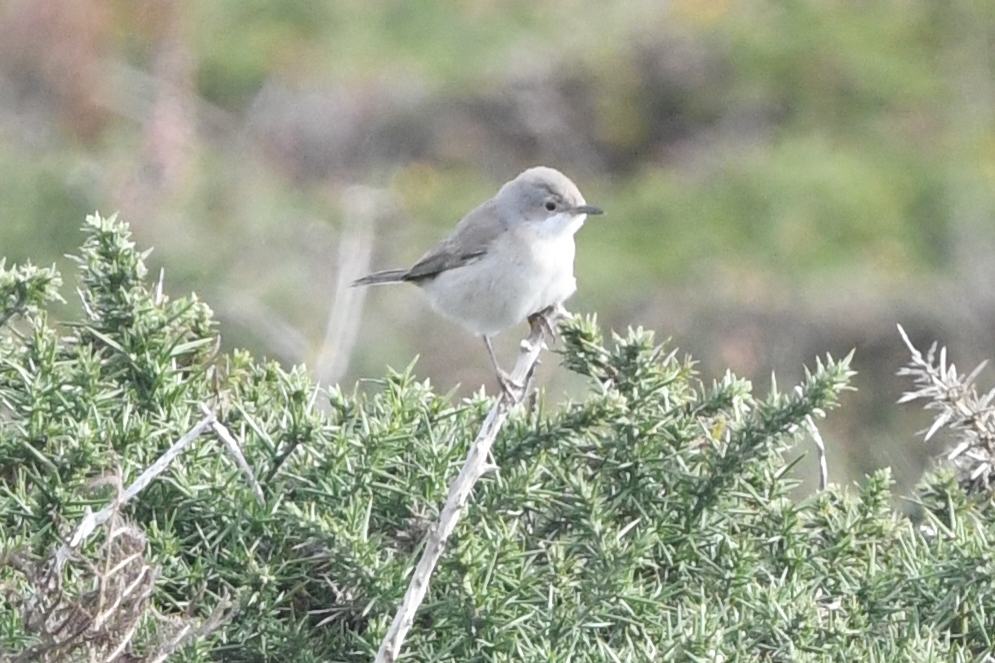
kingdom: Animalia
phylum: Chordata
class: Aves
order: Passeriformes
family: Sylviidae
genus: Curruca
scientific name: Curruca iberiae
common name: Western subalpine warbler
